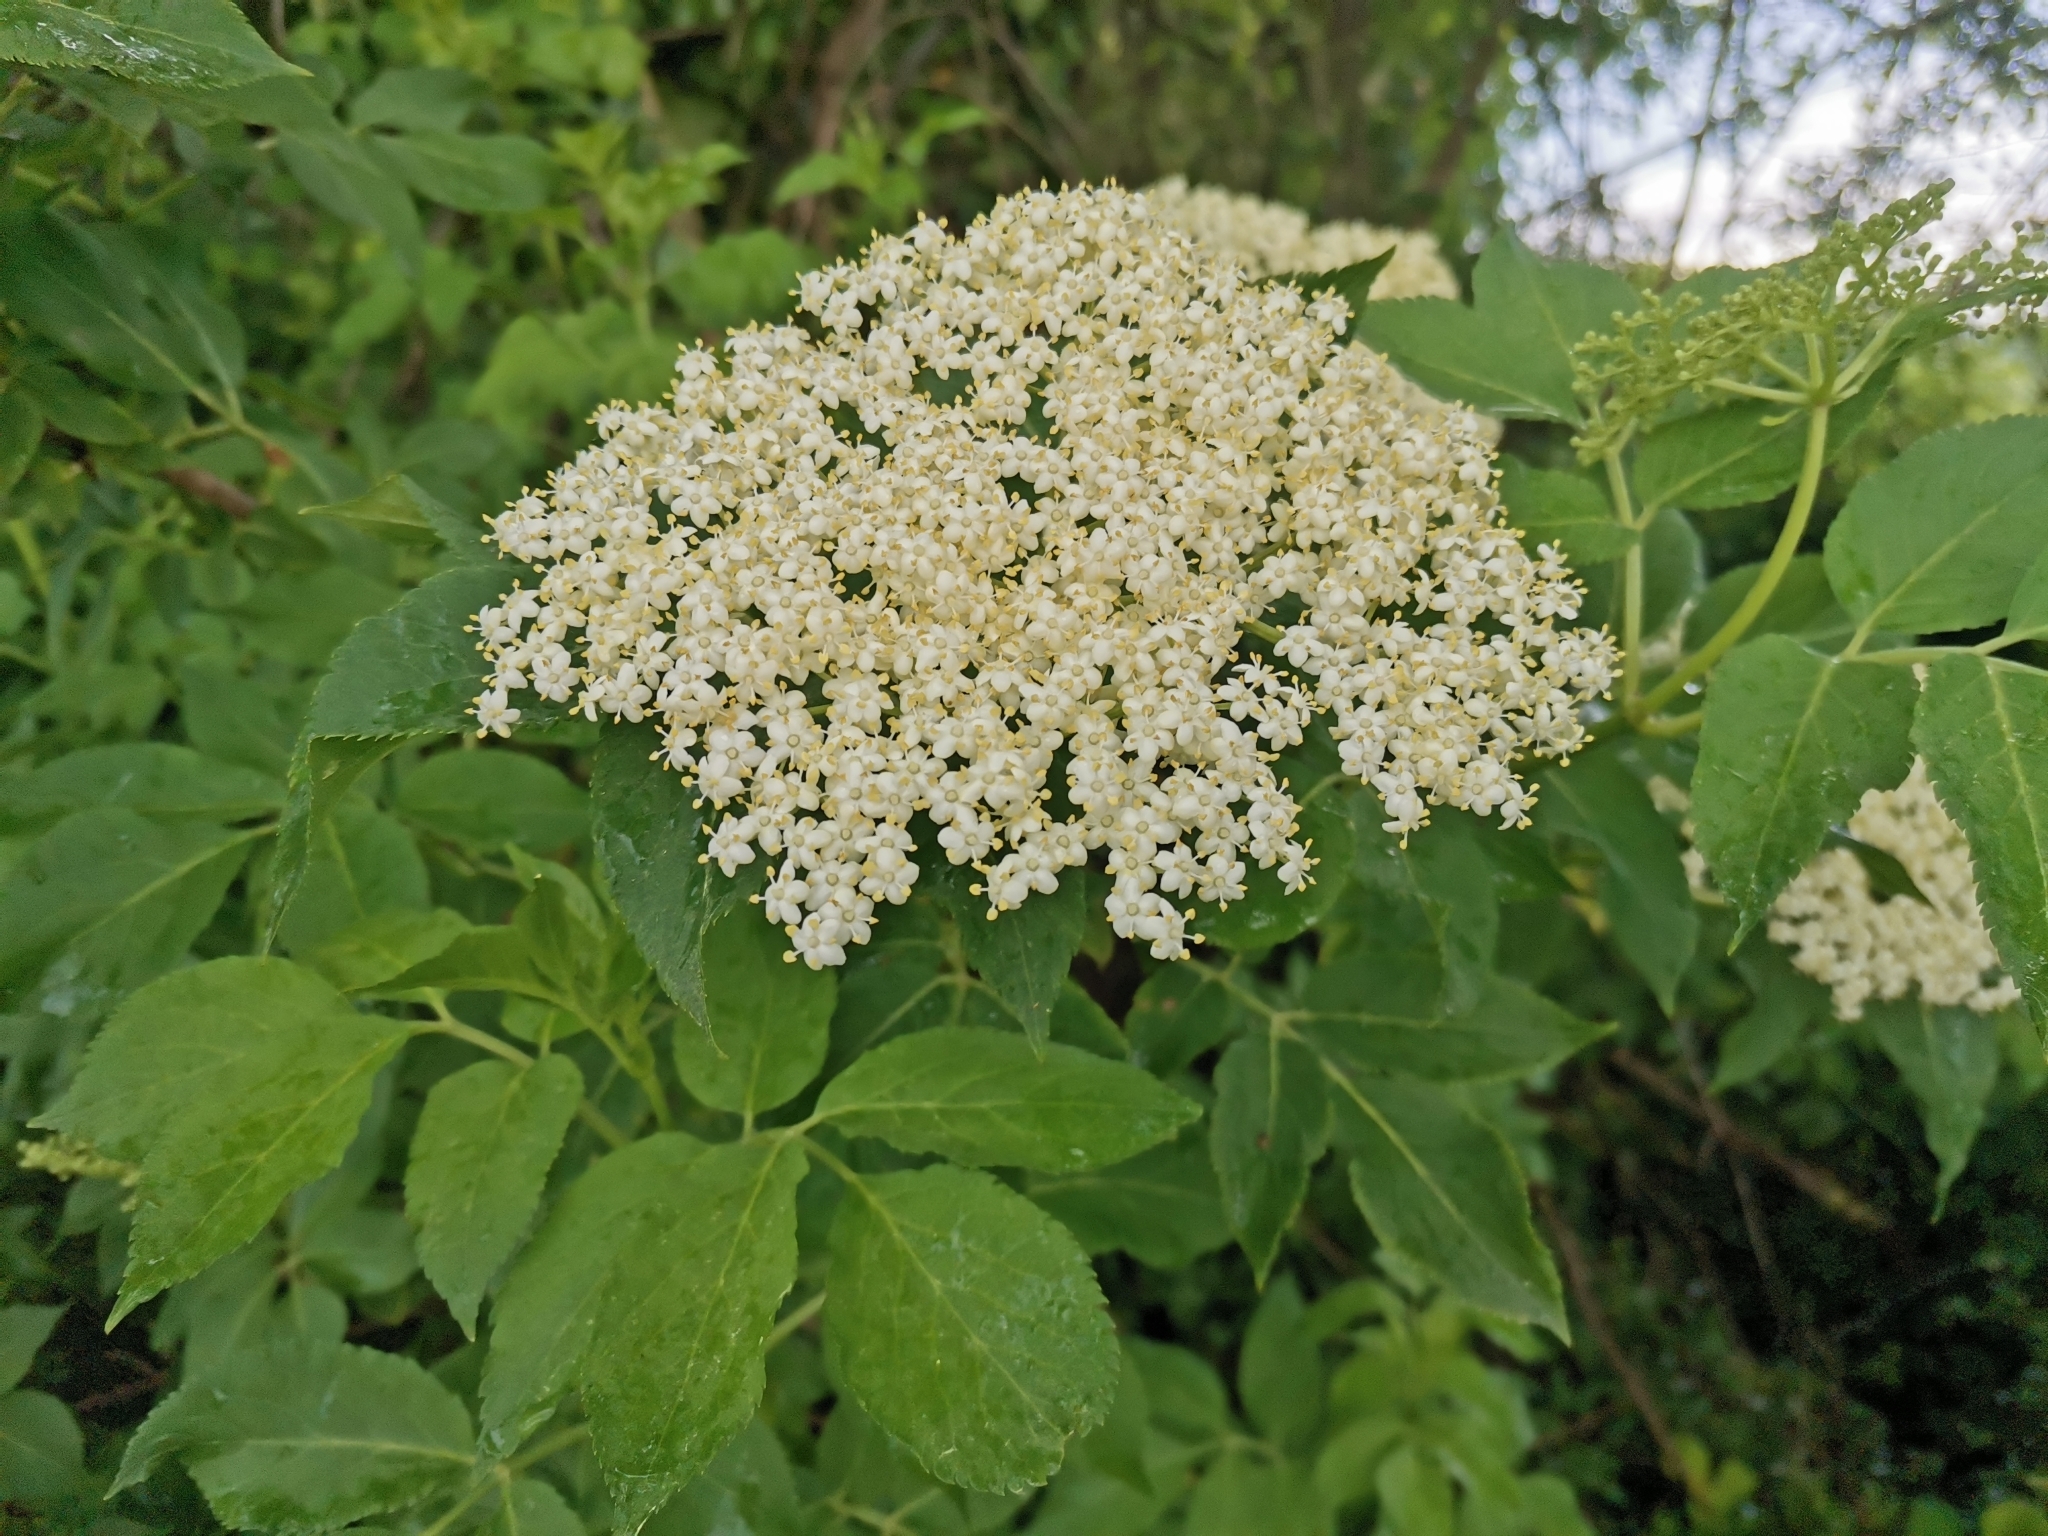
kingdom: Plantae
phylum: Tracheophyta
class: Magnoliopsida
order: Dipsacales
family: Viburnaceae
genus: Sambucus
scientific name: Sambucus nigra
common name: Elder
